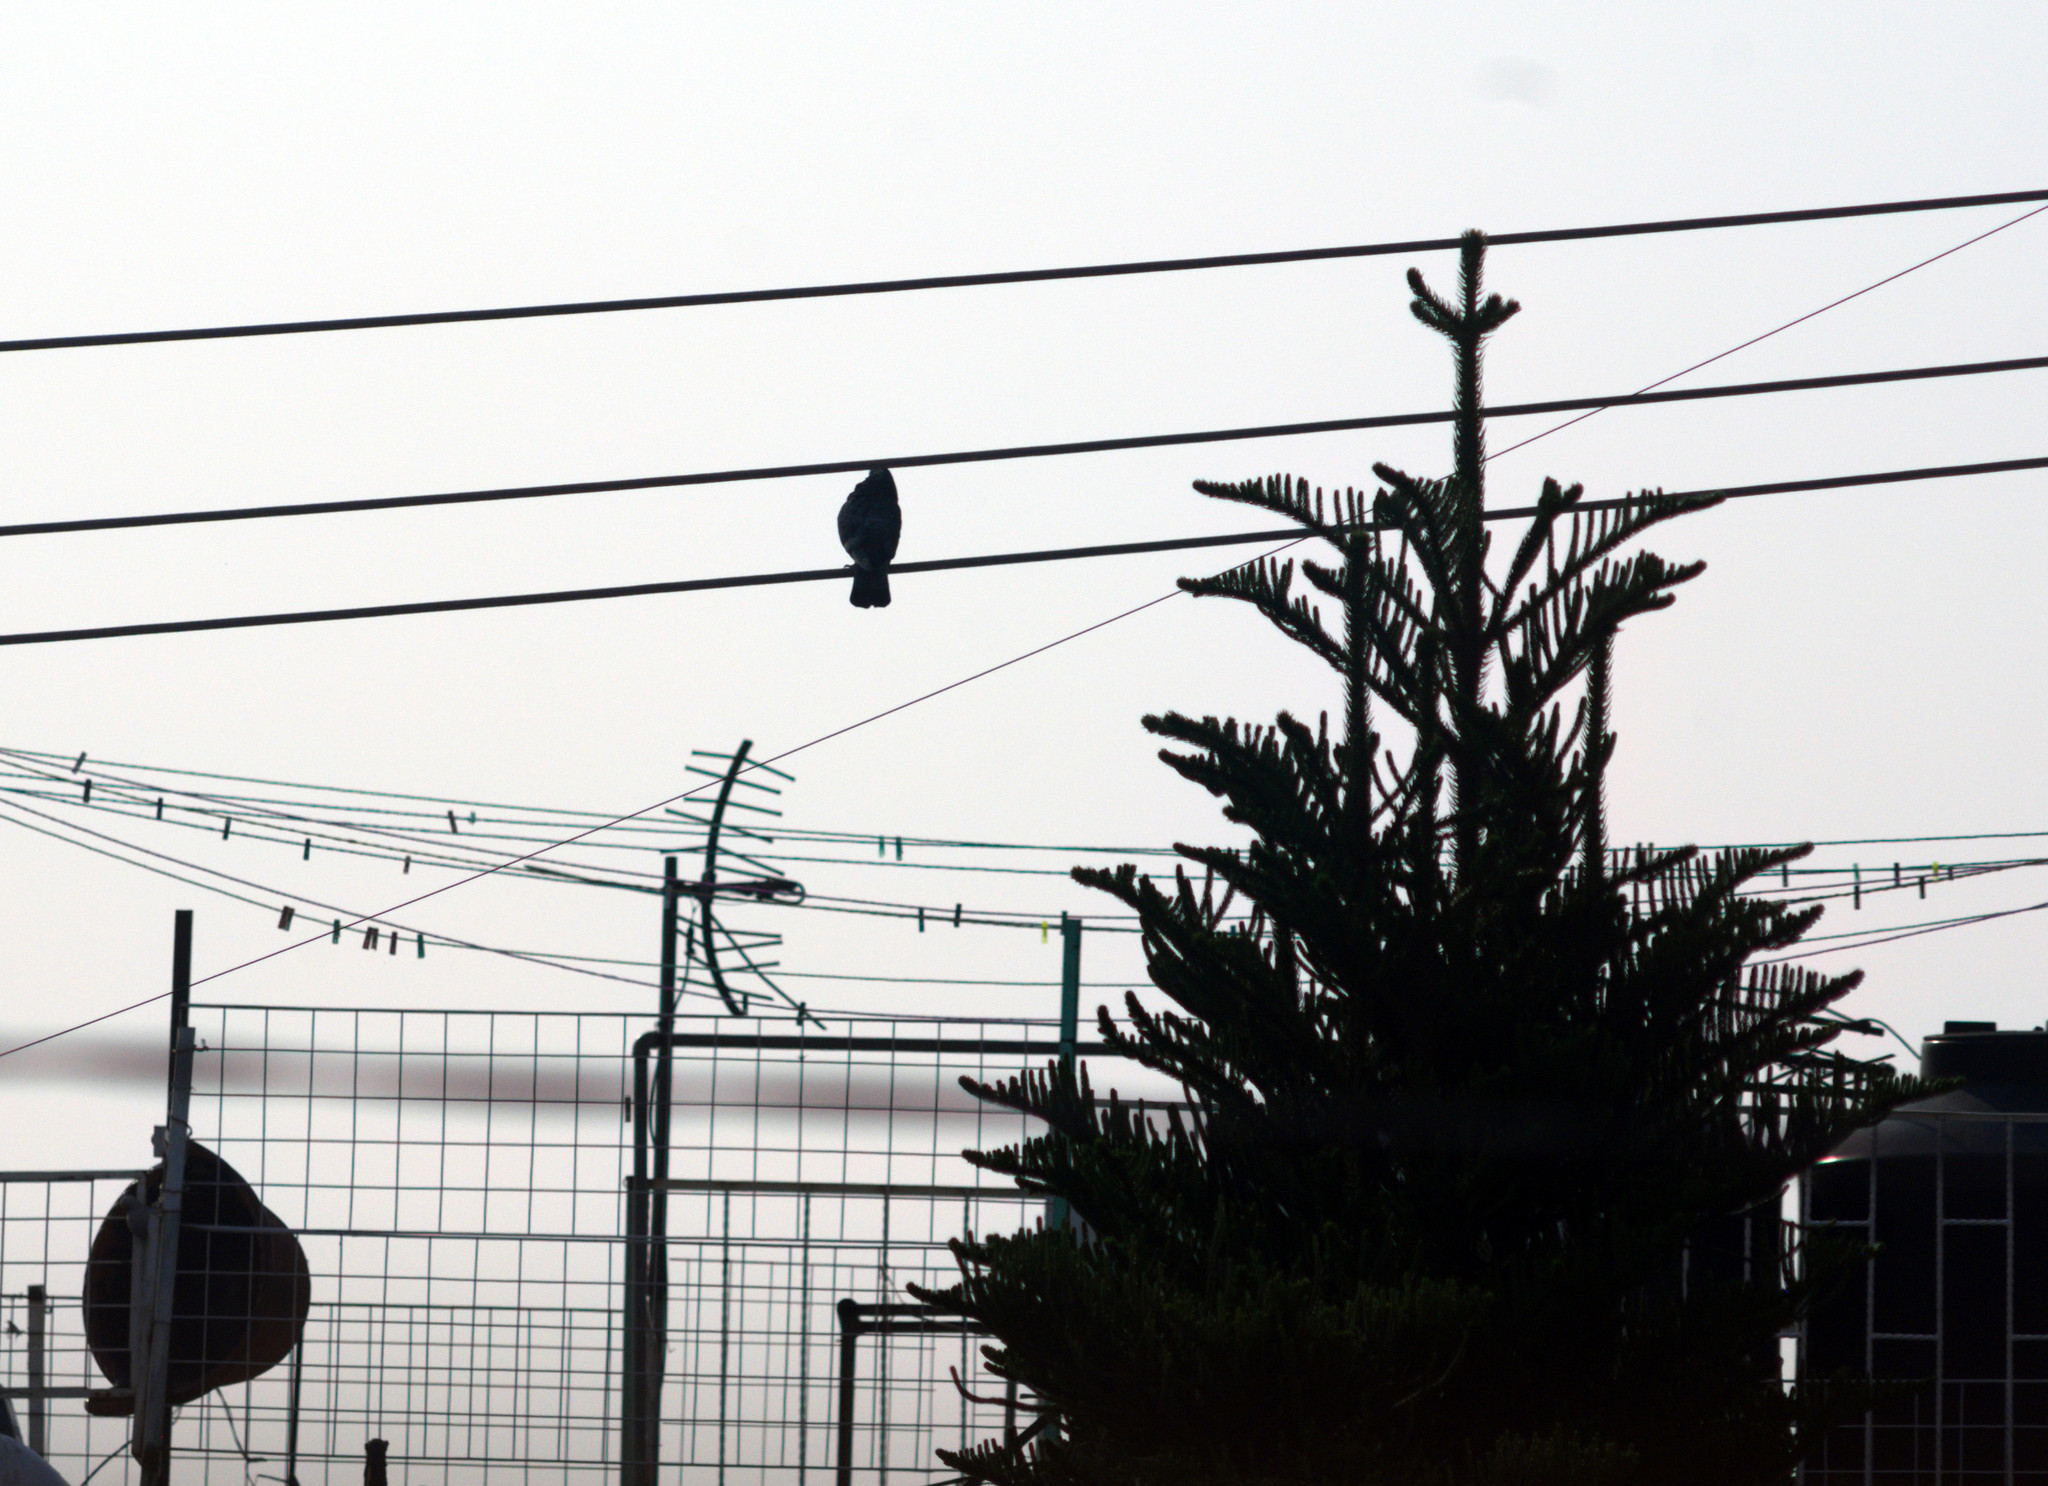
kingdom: Animalia
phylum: Chordata
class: Aves
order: Columbiformes
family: Columbidae
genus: Columba
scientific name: Columba livia
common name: Rock pigeon
